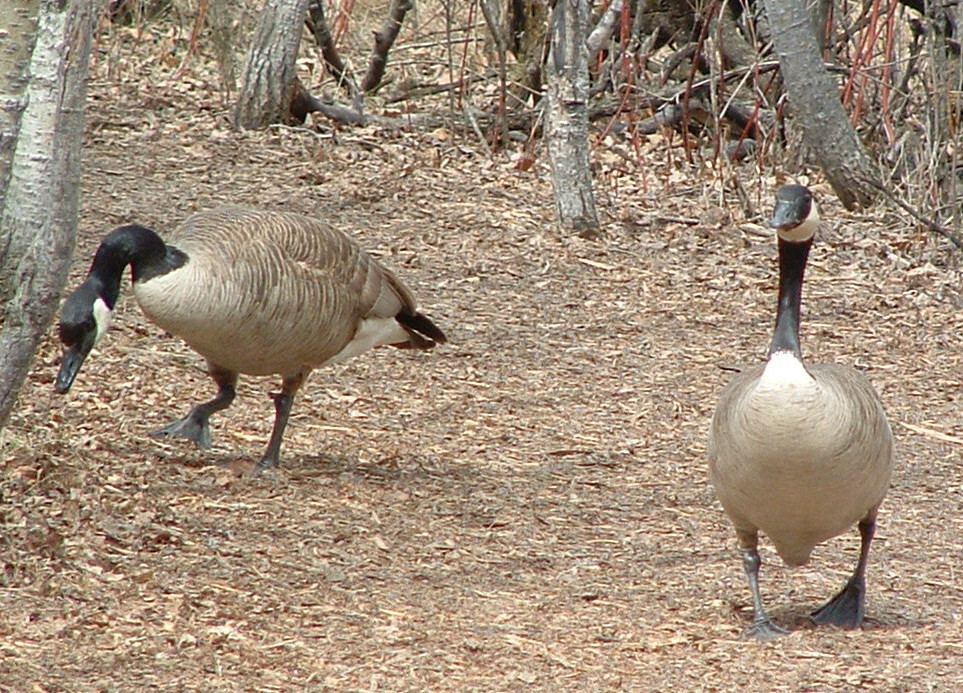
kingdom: Animalia
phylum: Chordata
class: Aves
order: Anseriformes
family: Anatidae
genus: Branta
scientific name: Branta canadensis
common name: Canada goose
